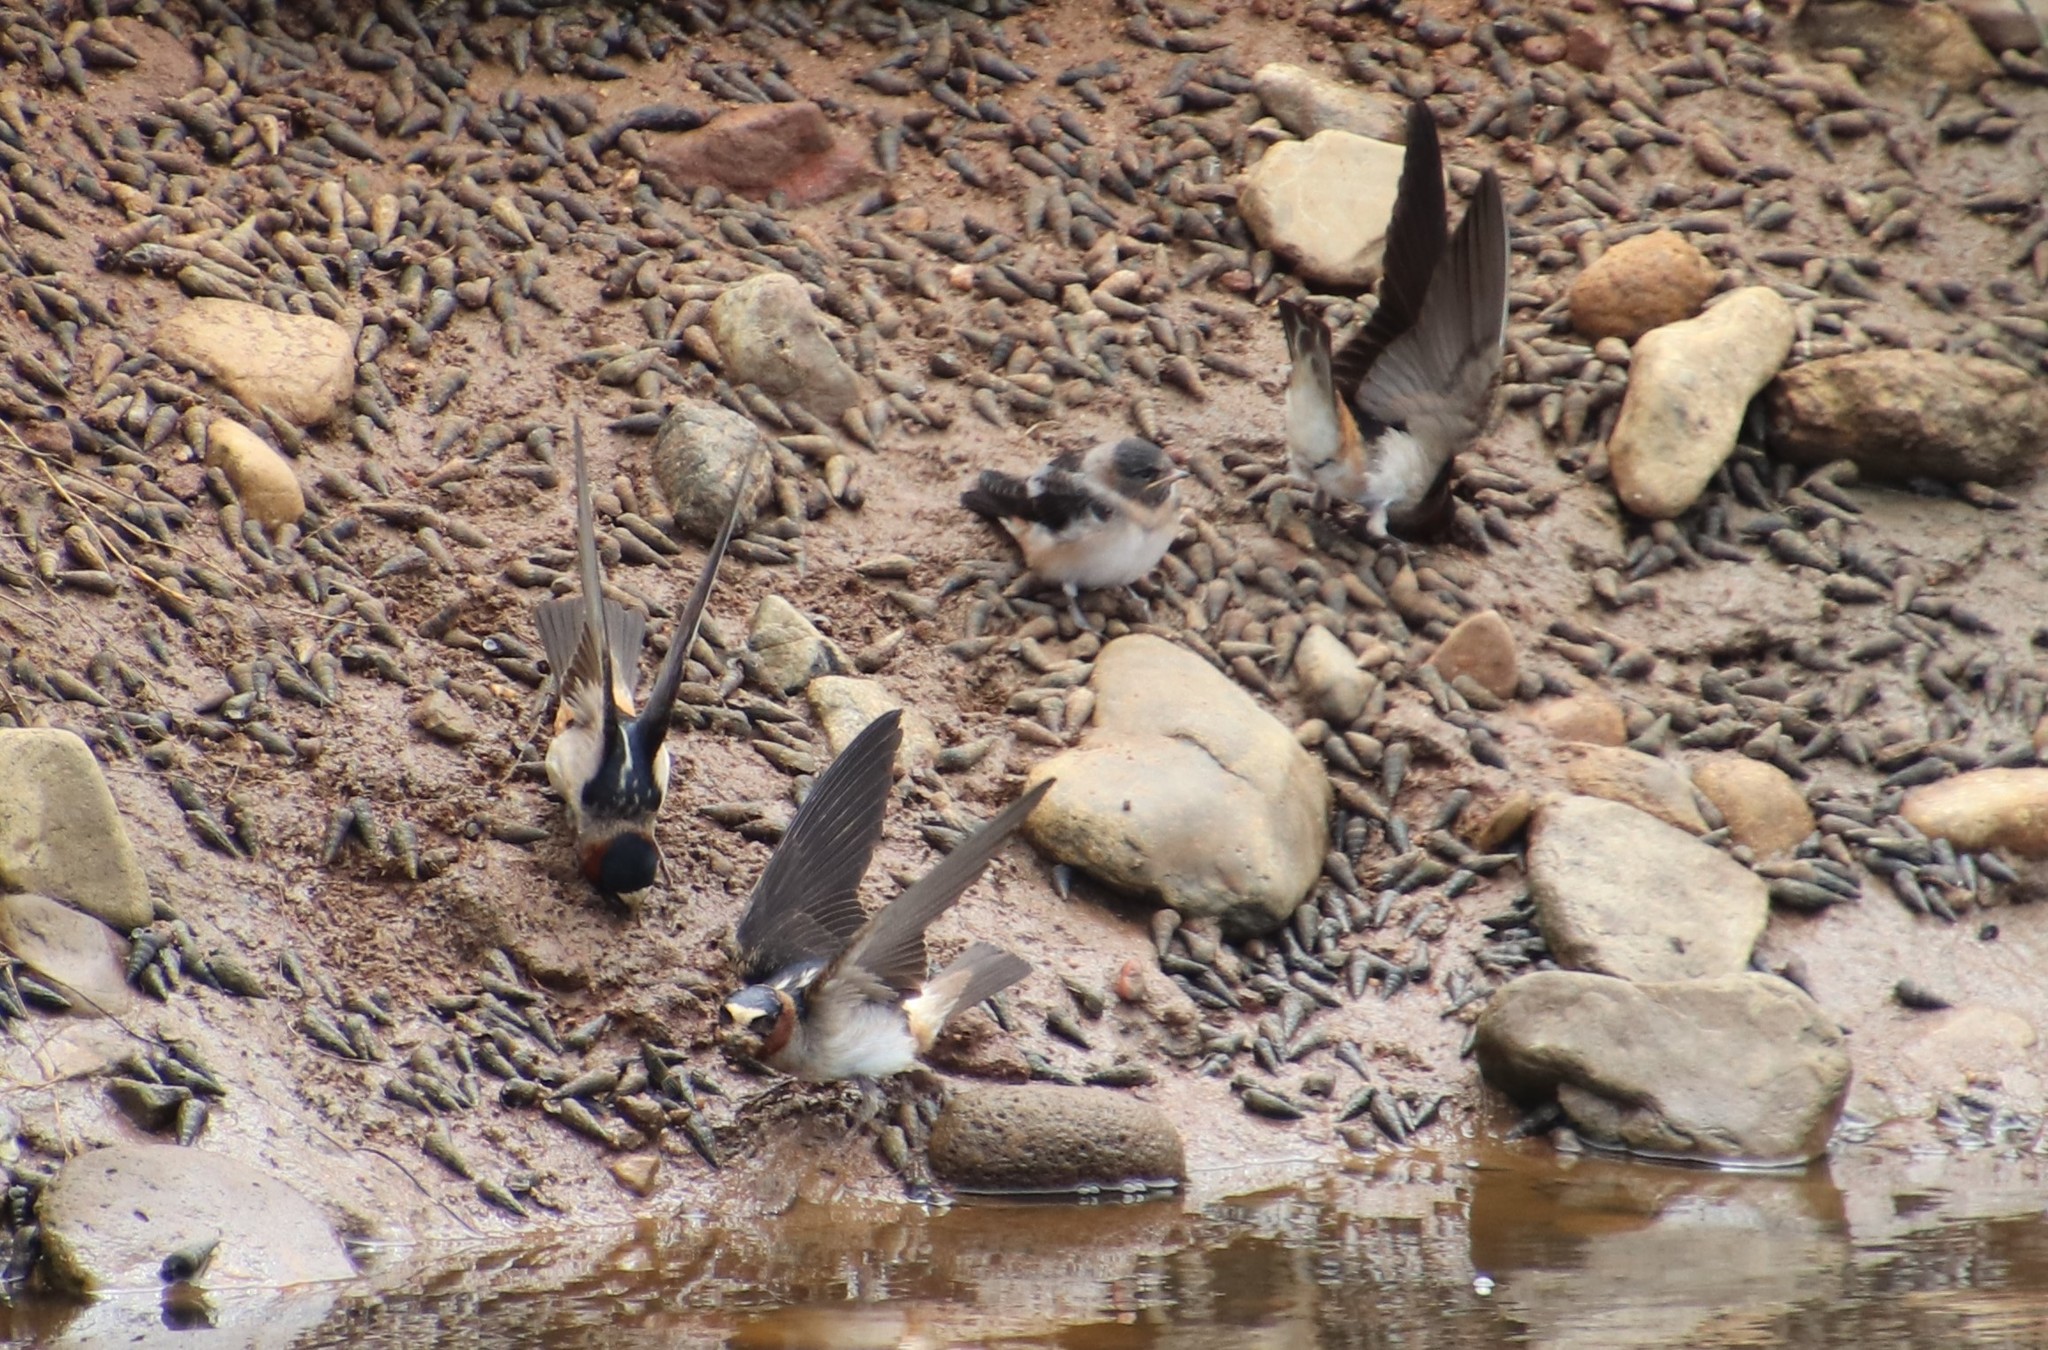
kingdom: Animalia
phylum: Chordata
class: Aves
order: Passeriformes
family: Hirundinidae
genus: Petrochelidon
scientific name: Petrochelidon pyrrhonota
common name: American cliff swallow
